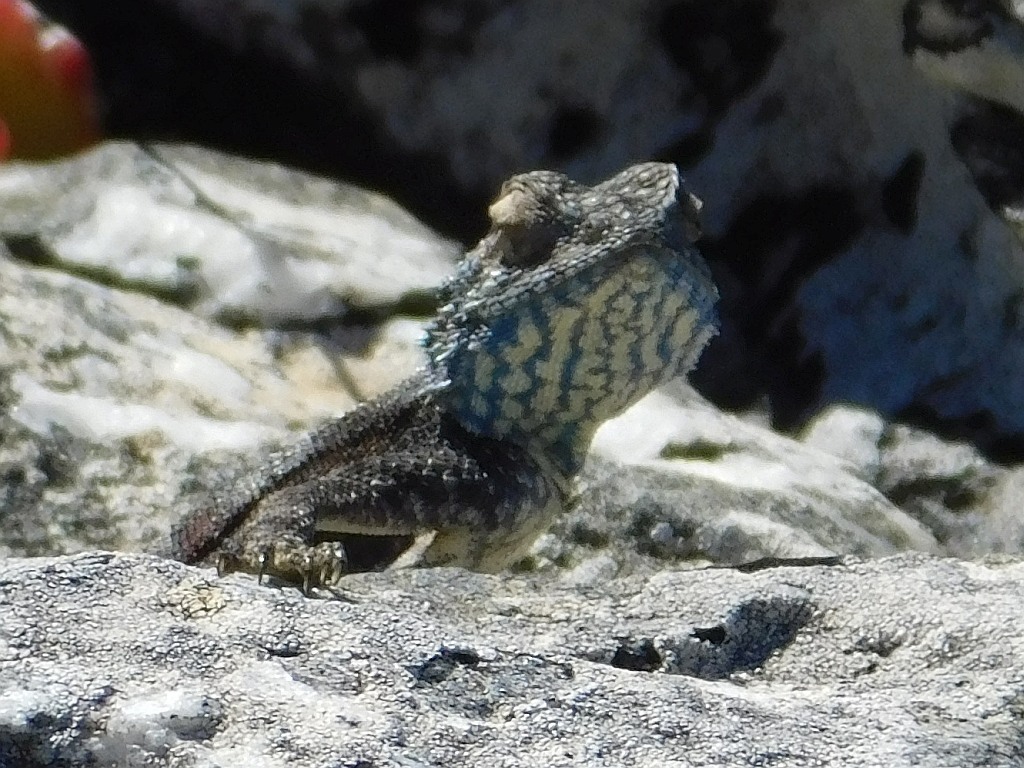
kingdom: Animalia
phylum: Chordata
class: Squamata
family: Agamidae
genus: Agama
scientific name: Agama atra
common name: Southern african rock agama
